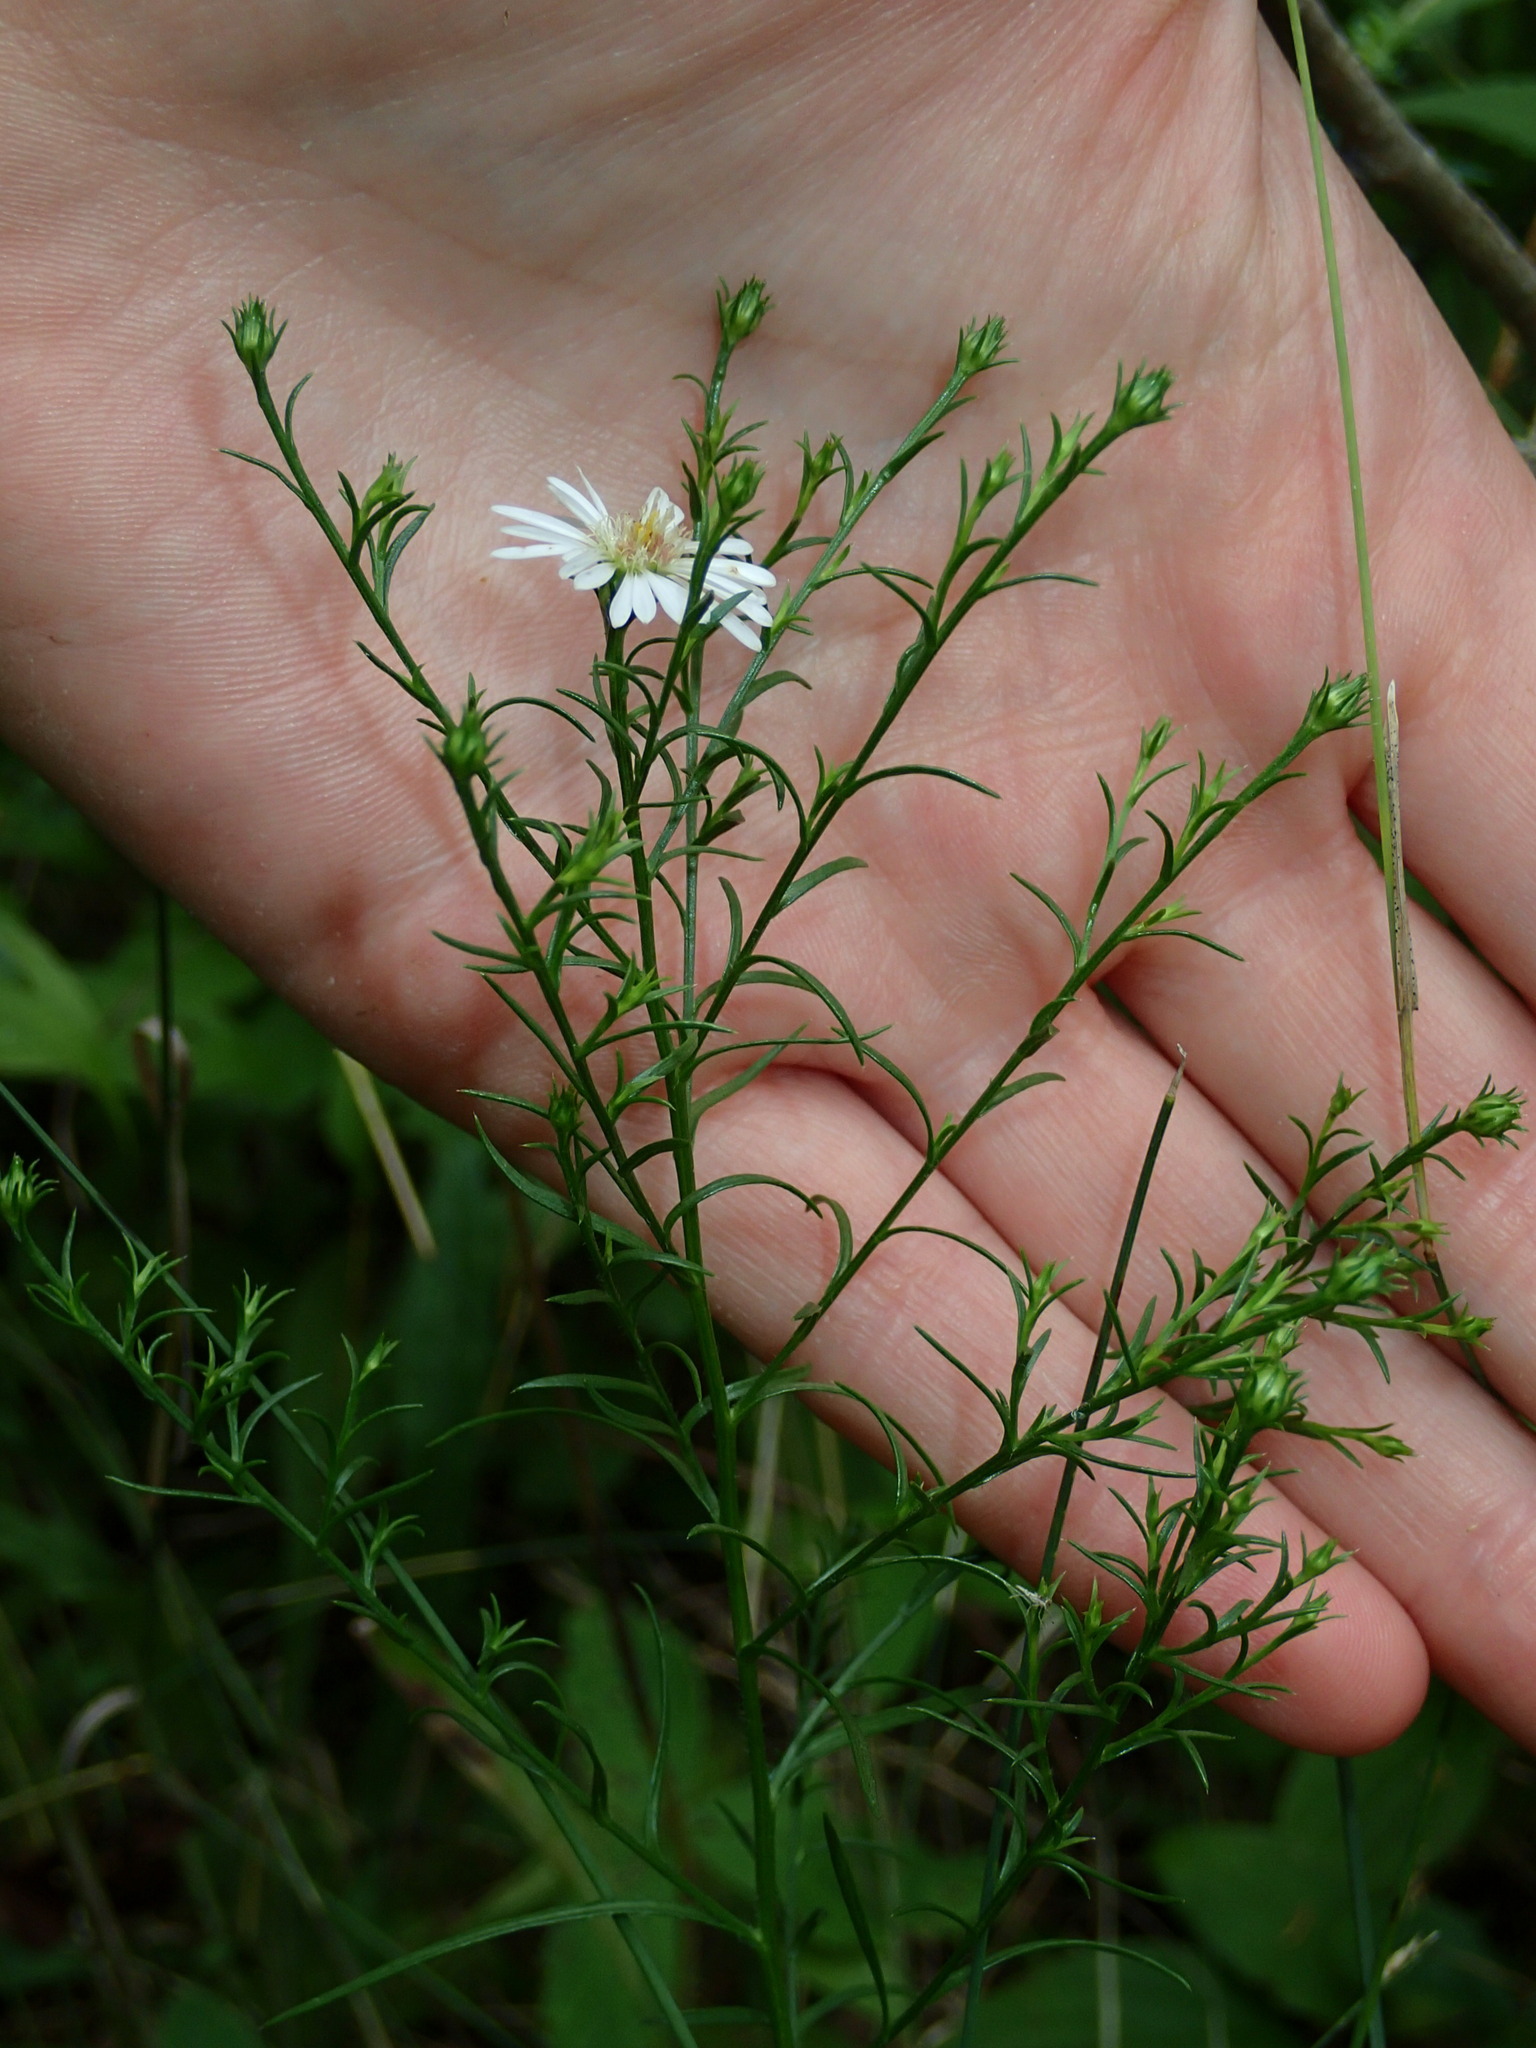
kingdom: Plantae
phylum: Tracheophyta
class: Magnoliopsida
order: Asterales
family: Asteraceae
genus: Symphyotrichum
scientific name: Symphyotrichum pilosum
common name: Awl aster
